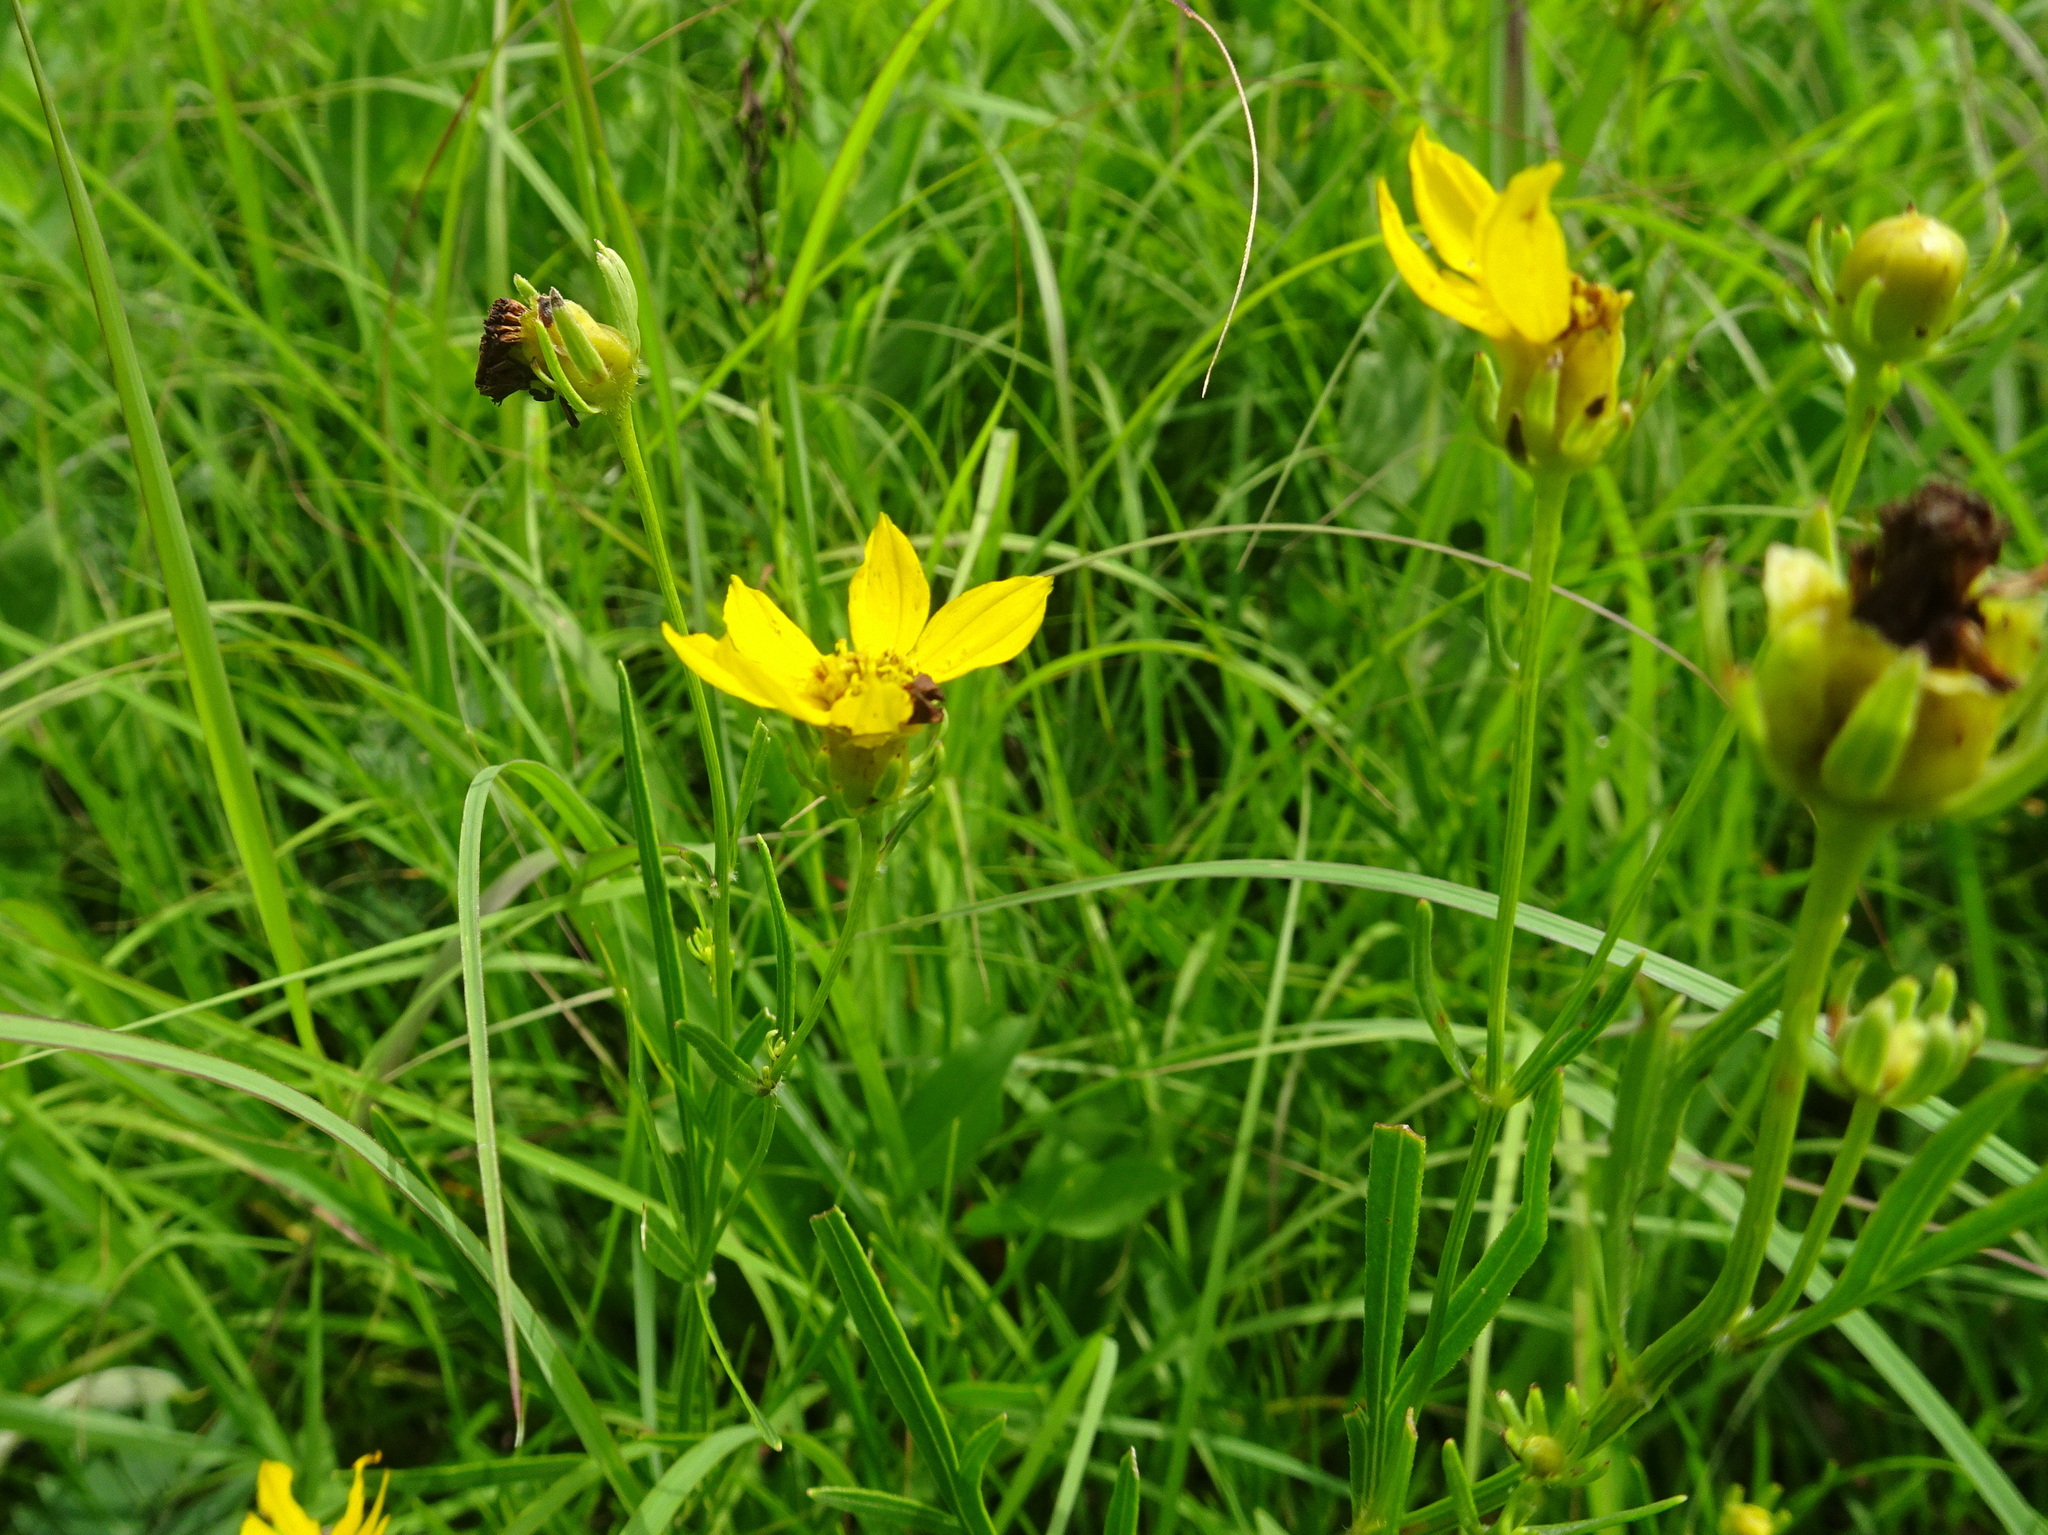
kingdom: Plantae
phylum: Tracheophyta
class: Magnoliopsida
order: Asterales
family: Asteraceae
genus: Coreopsis
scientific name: Coreopsis palmata
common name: Prairie coreopsis
